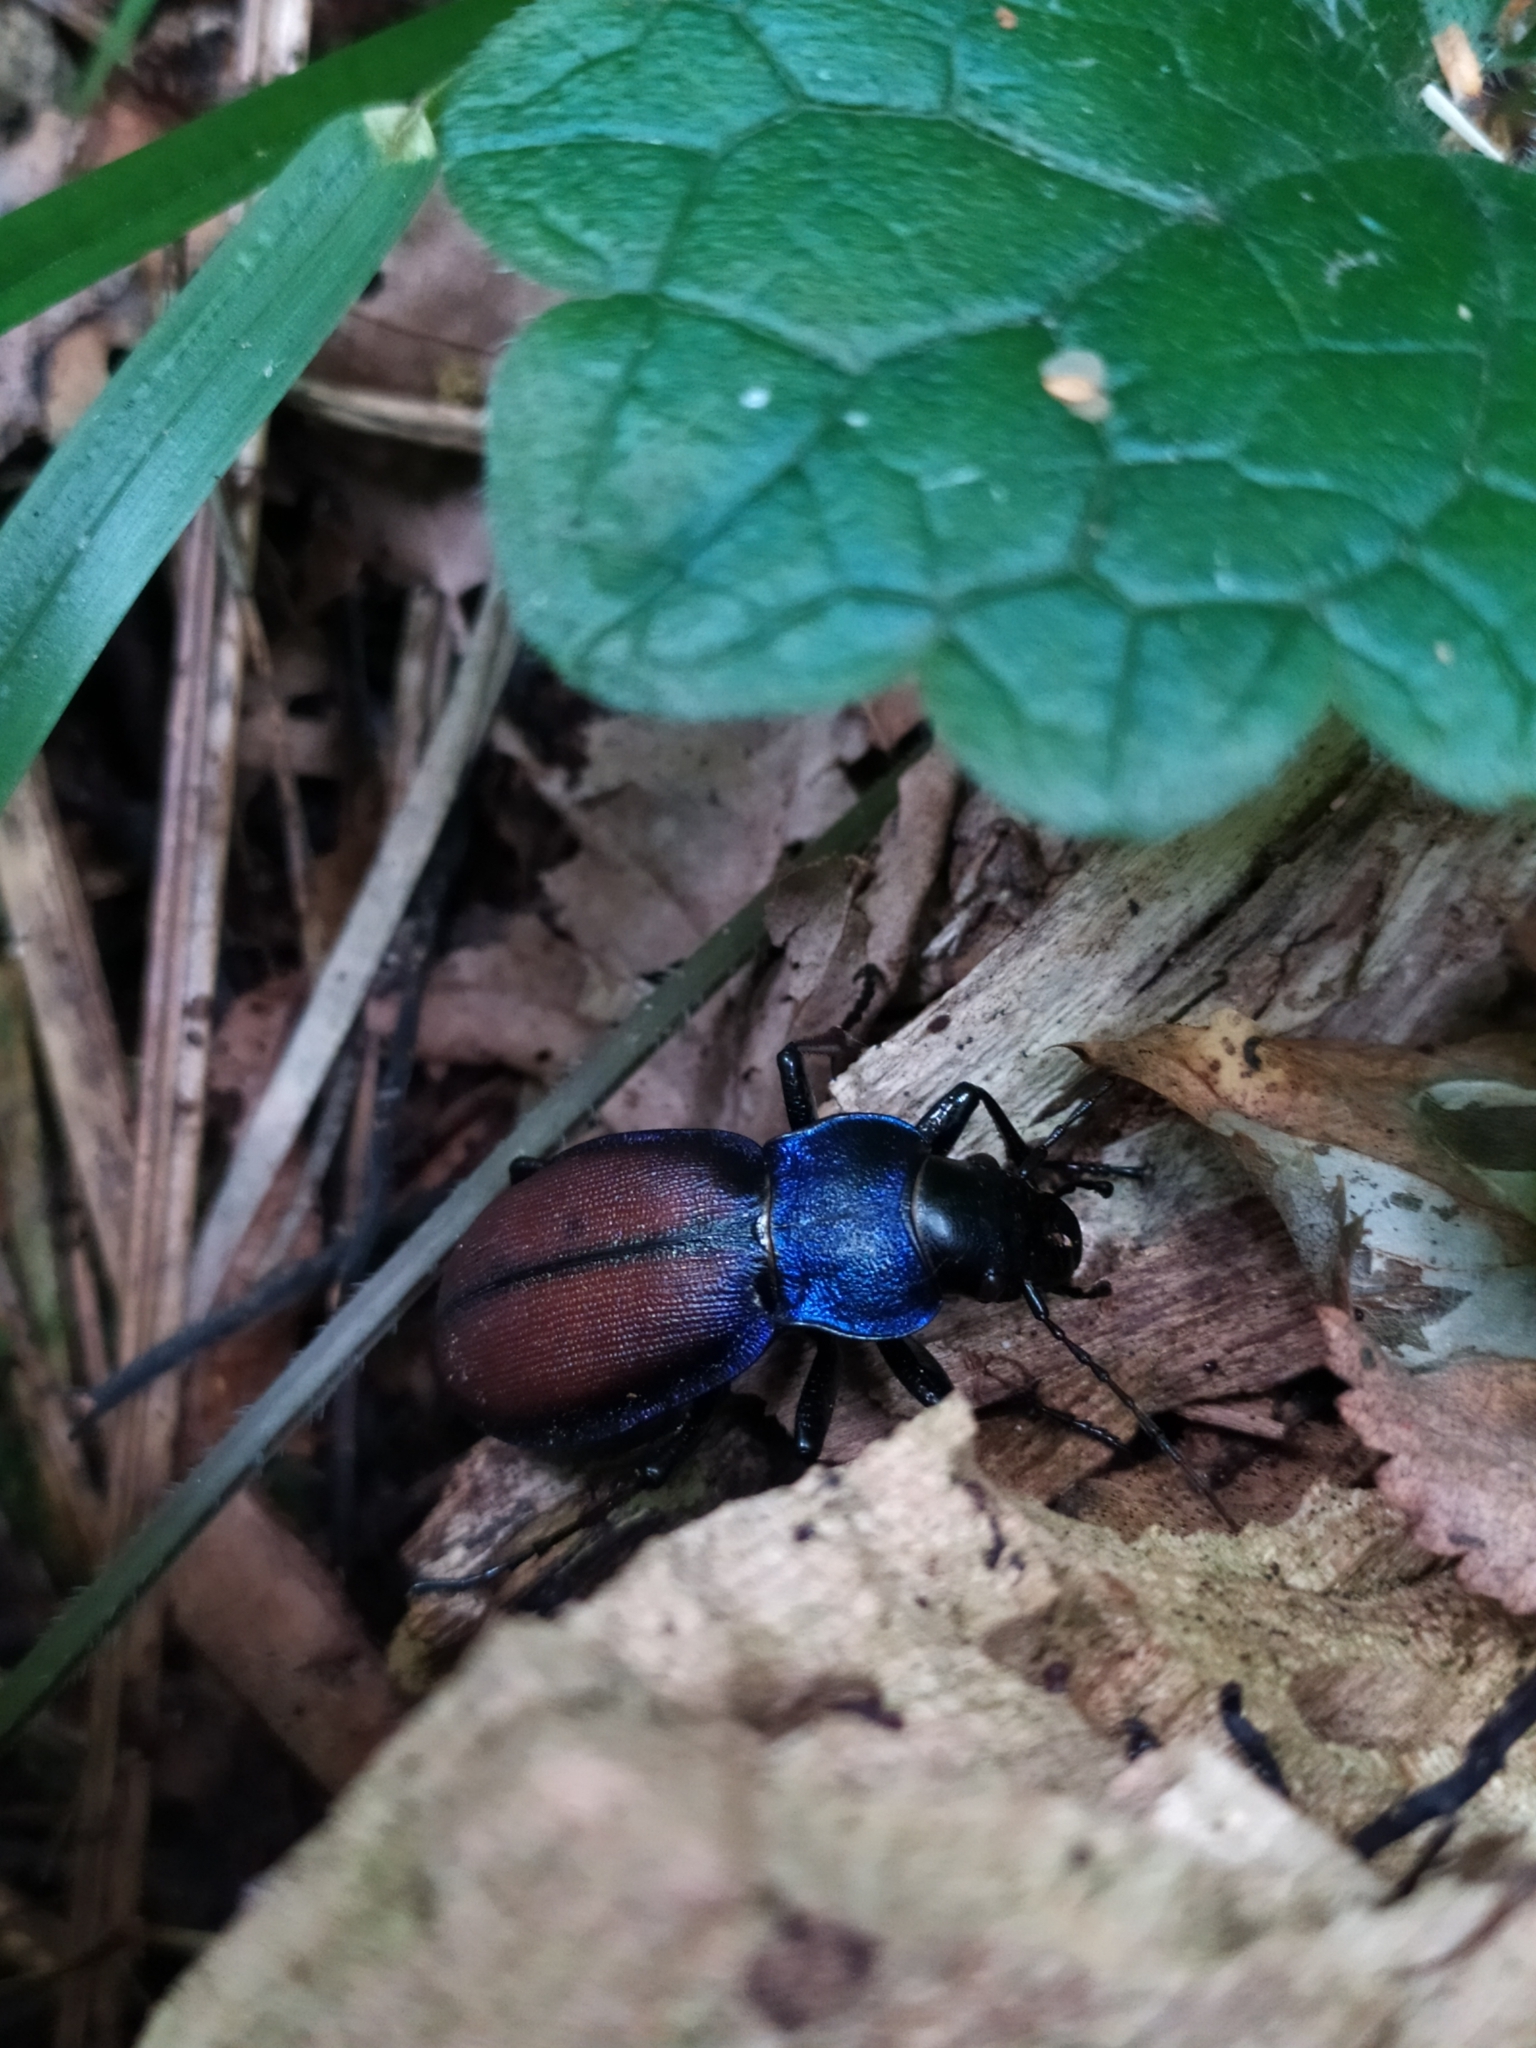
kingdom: Animalia
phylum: Arthropoda
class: Insecta
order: Coleoptera
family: Carabidae
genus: Carabus
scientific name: Carabus schoenherri
